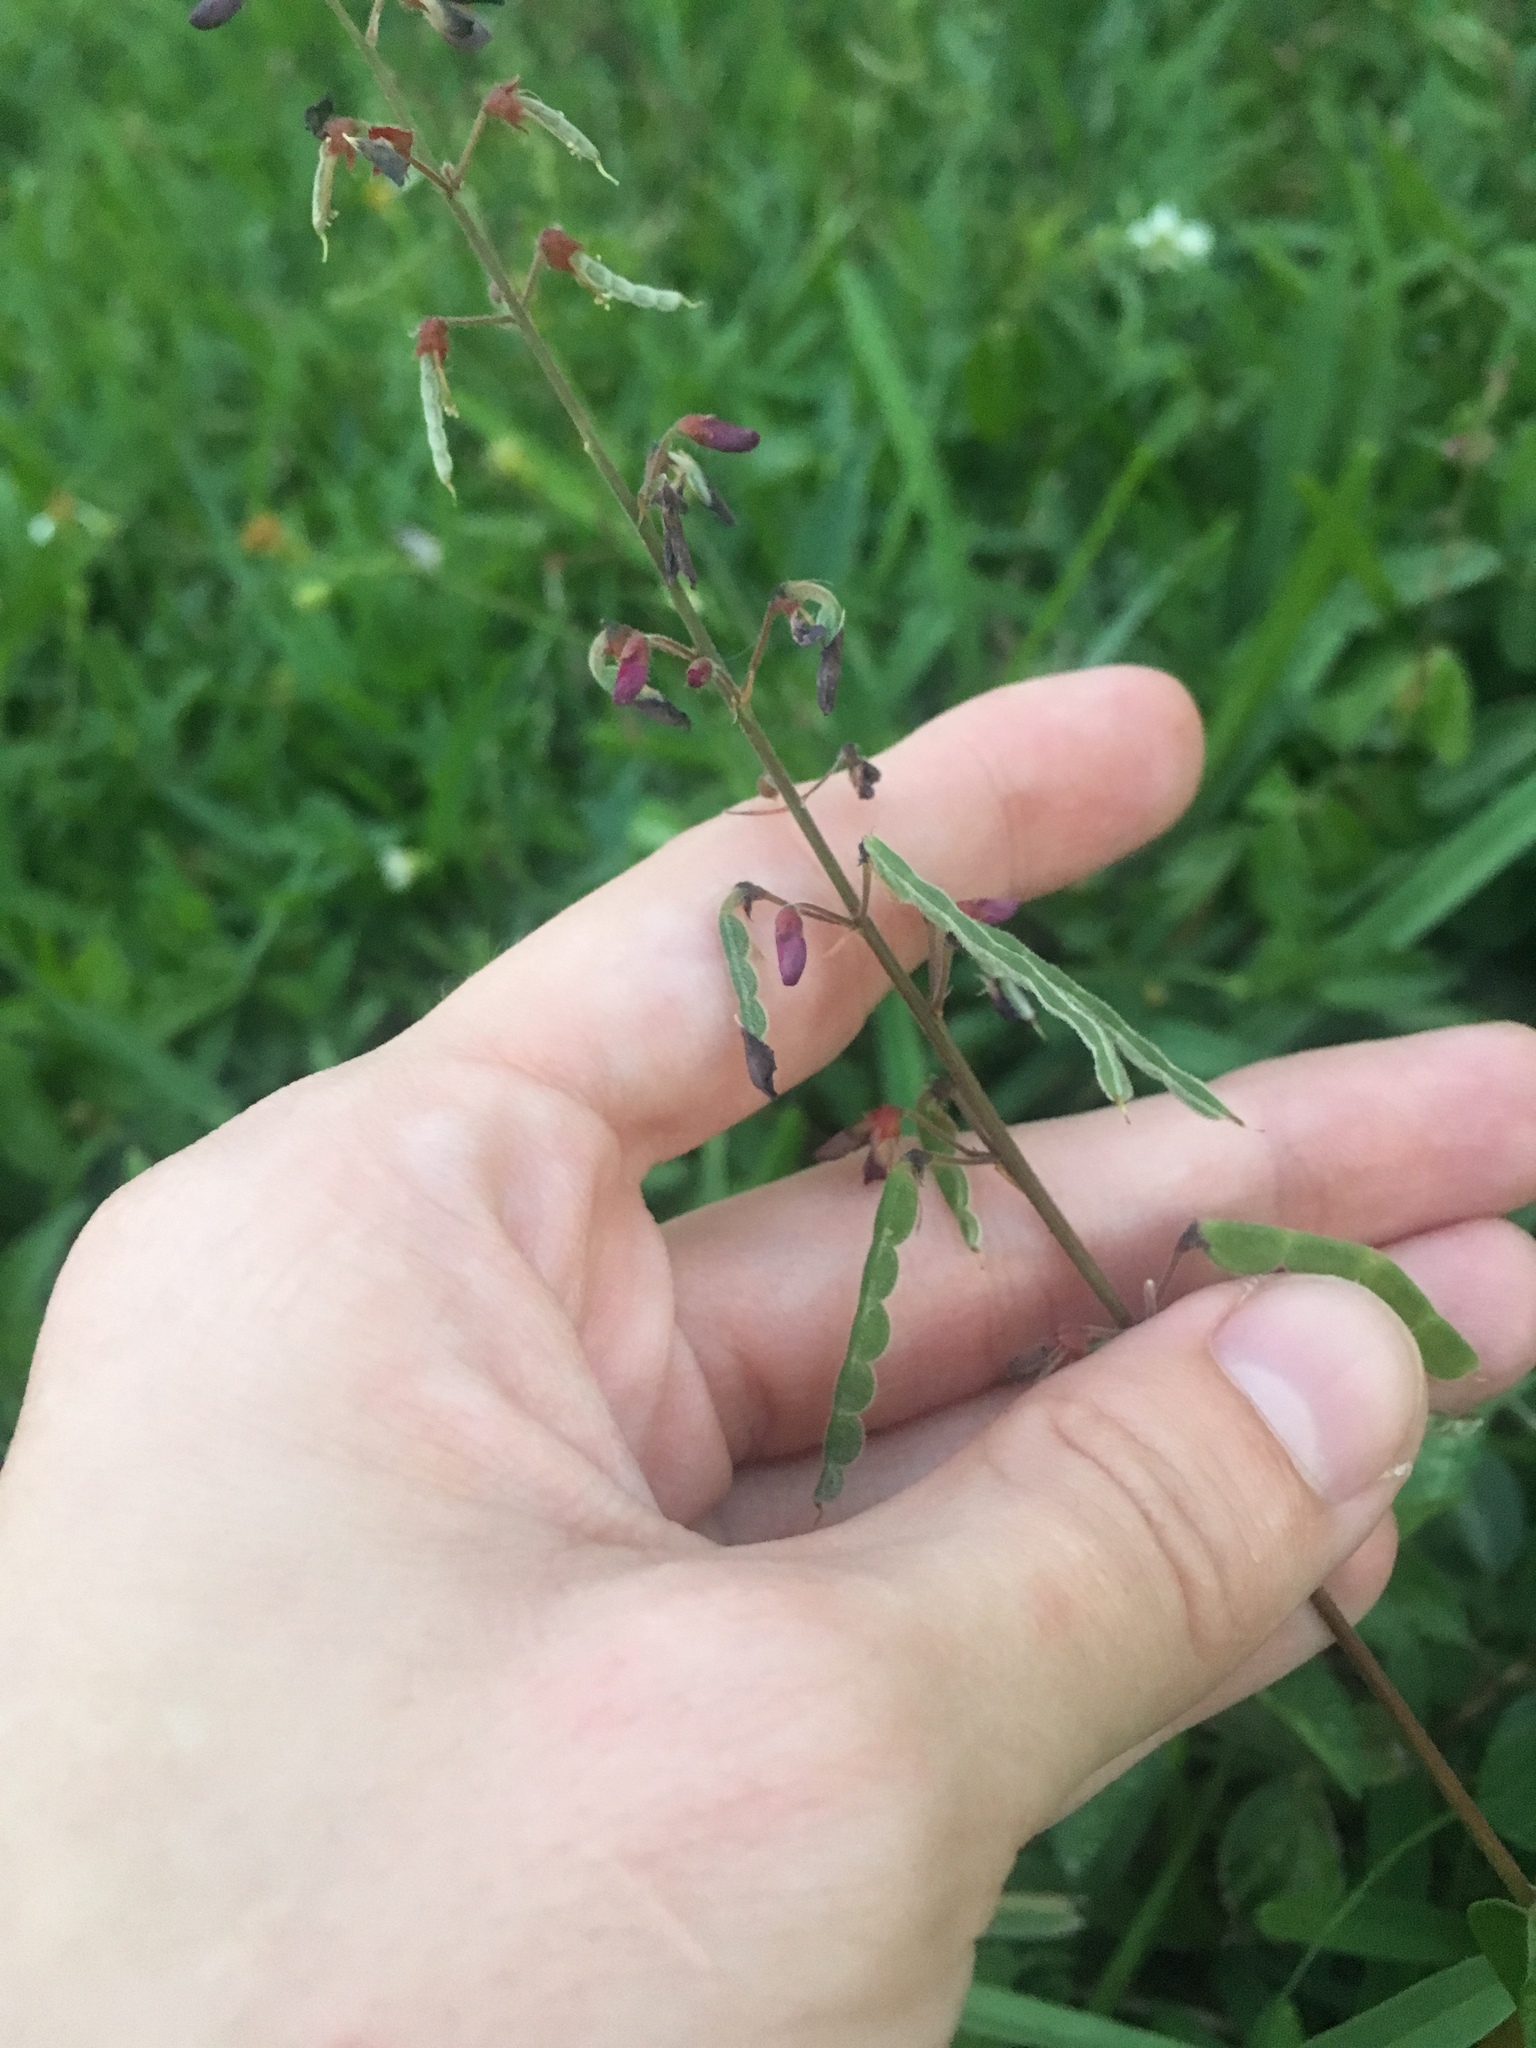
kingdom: Plantae
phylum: Tracheophyta
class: Magnoliopsida
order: Fabales
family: Fabaceae
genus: Desmodium
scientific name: Desmodium incanum
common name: Tickclover
